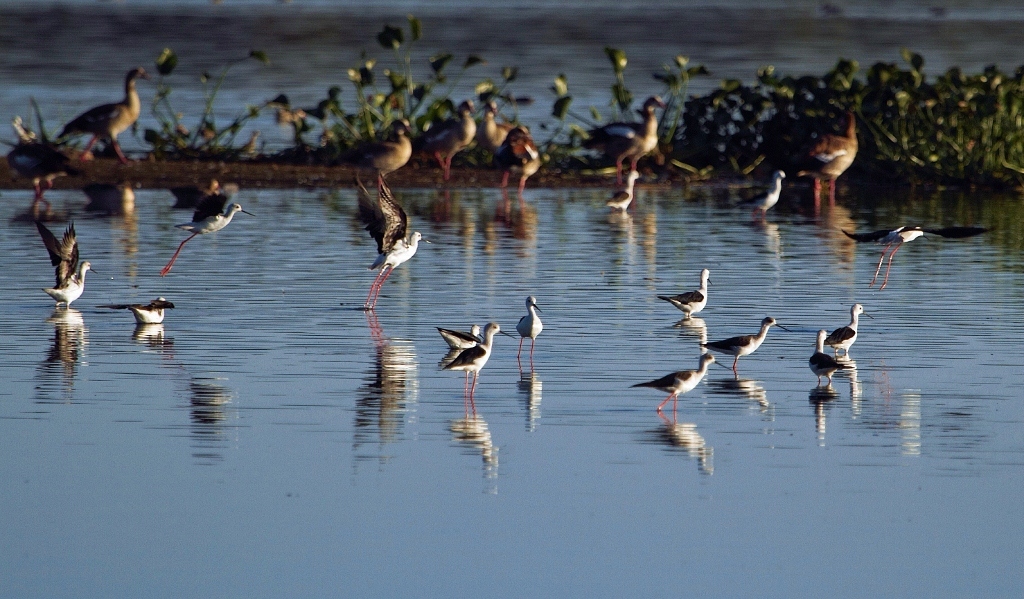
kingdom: Animalia
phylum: Chordata
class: Aves
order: Charadriiformes
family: Recurvirostridae
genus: Himantopus
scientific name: Himantopus himantopus
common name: Black-winged stilt
